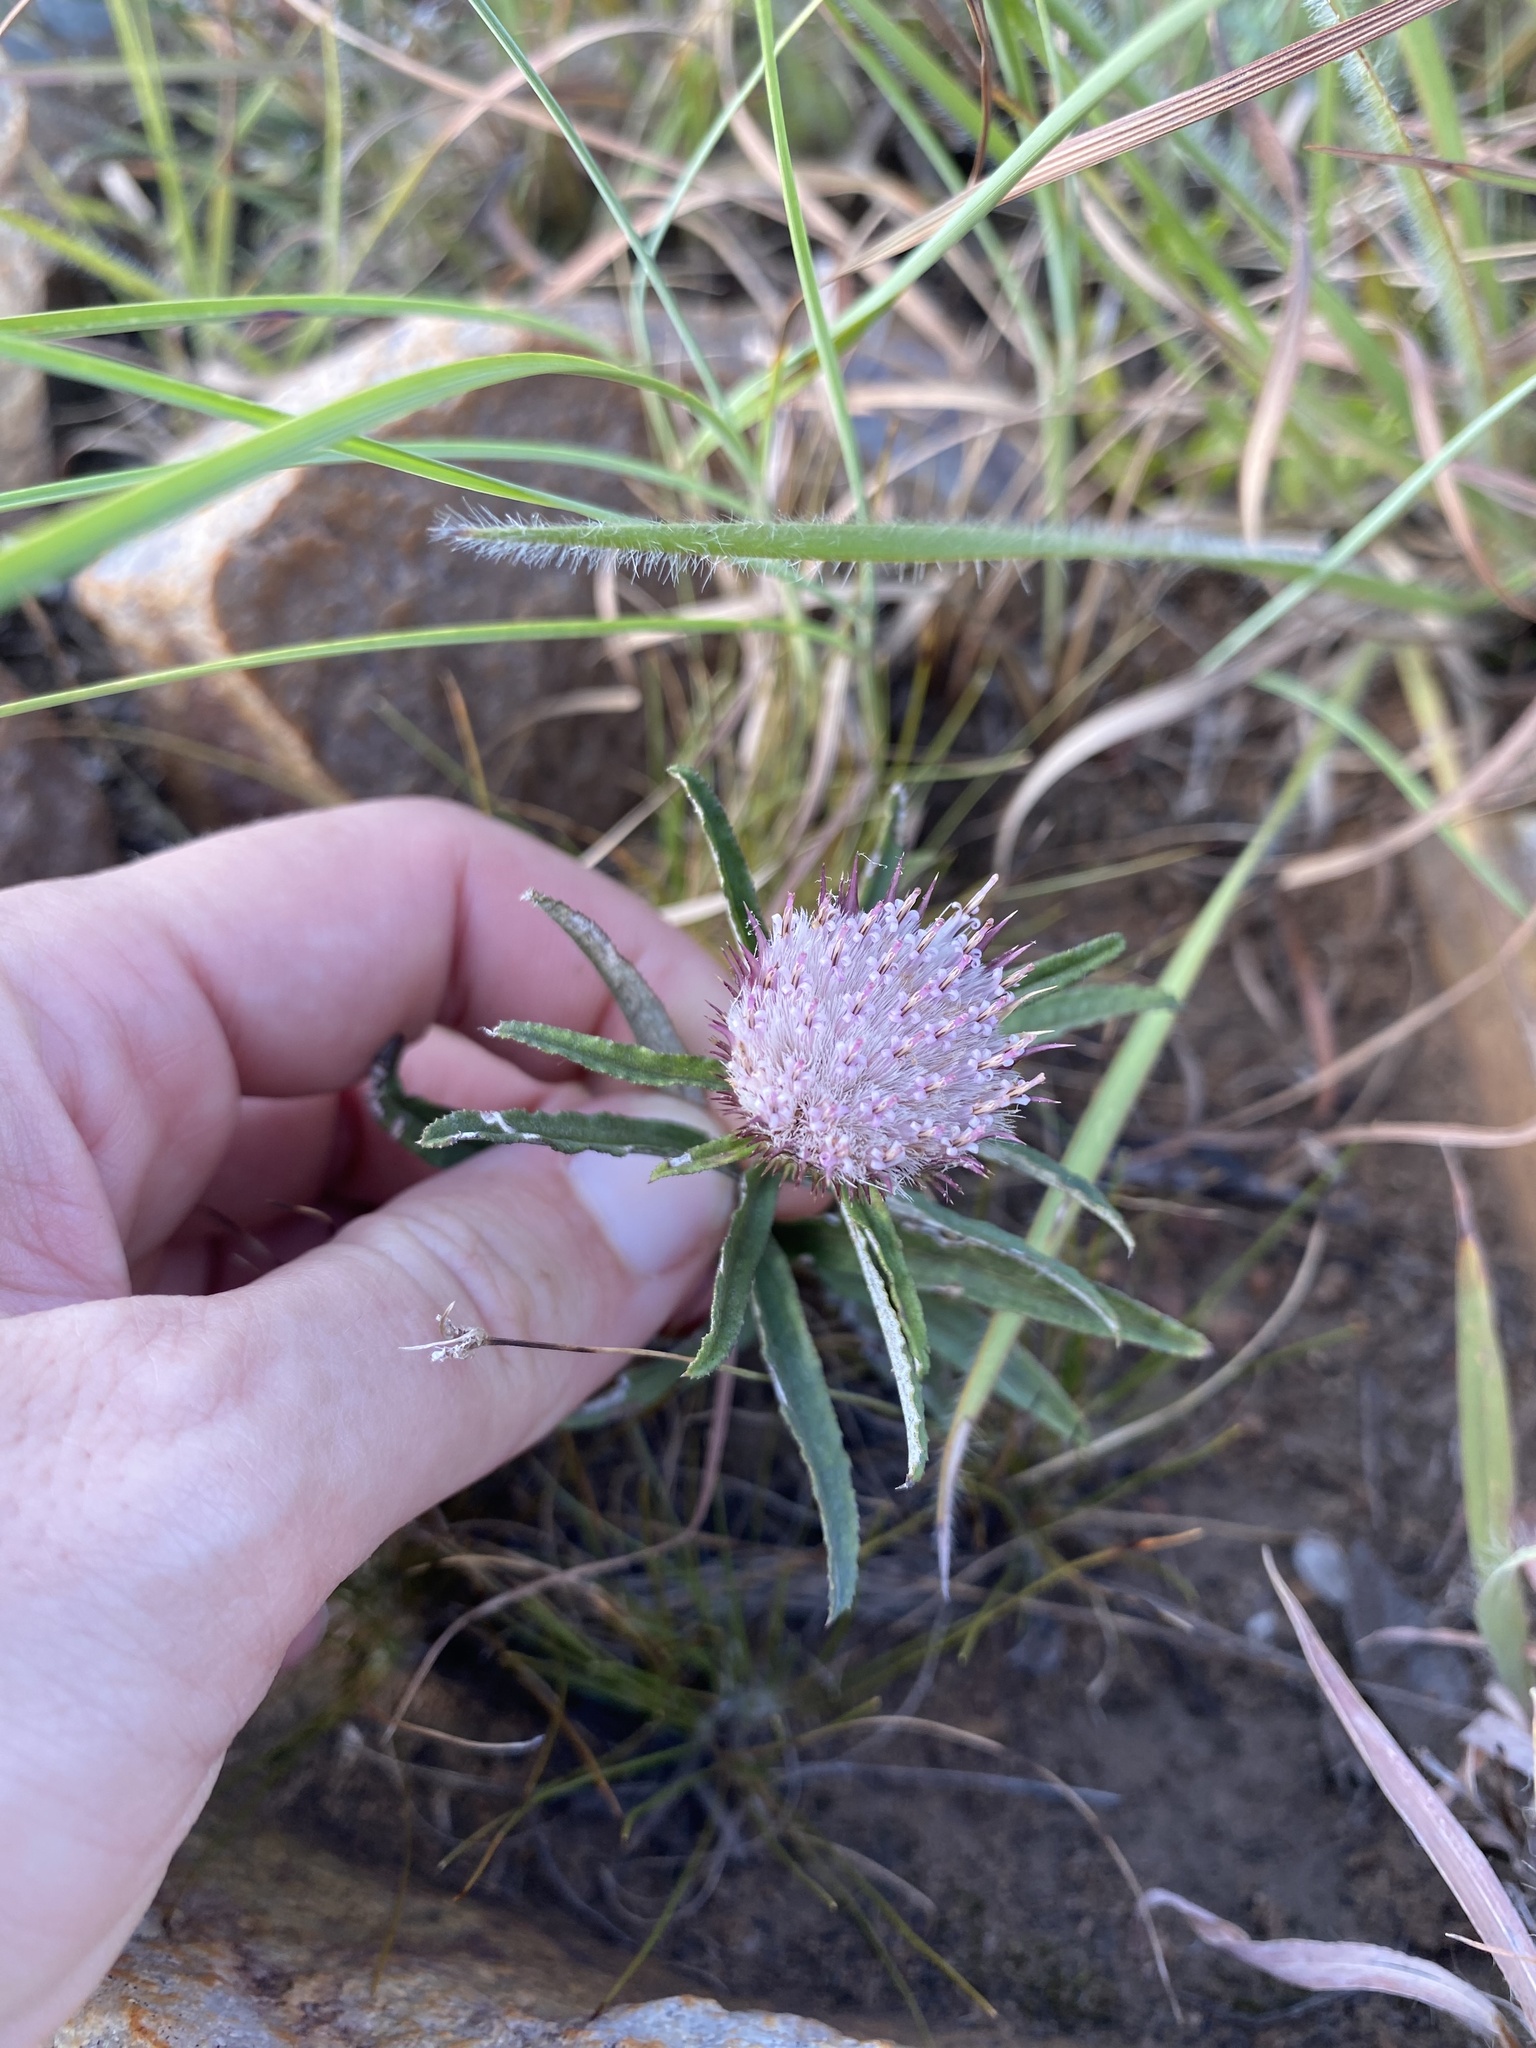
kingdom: Plantae
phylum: Tracheophyta
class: Magnoliopsida
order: Asterales
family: Asteraceae
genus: Dicoma
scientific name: Dicoma anomala
